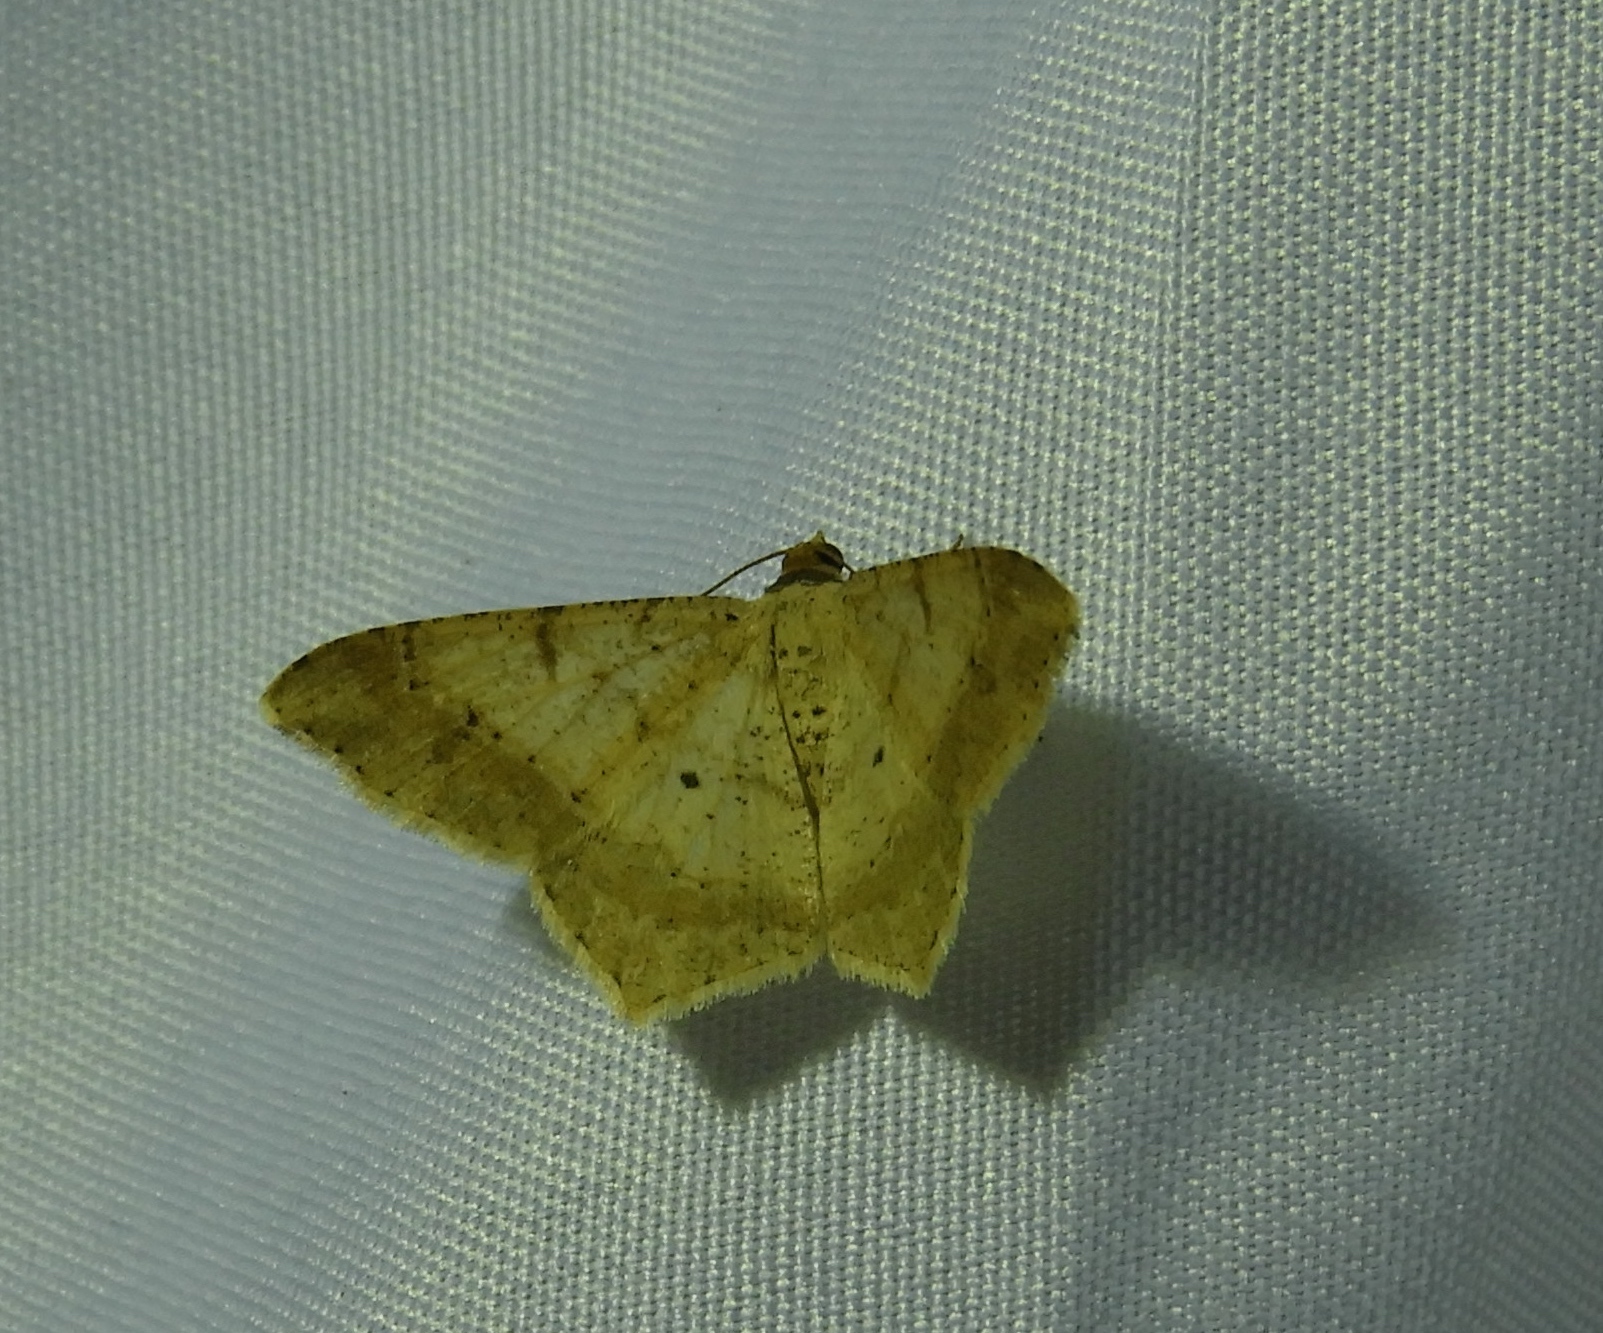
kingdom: Animalia
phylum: Arthropoda
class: Insecta
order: Lepidoptera
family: Geometridae
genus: Macaria
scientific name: Macaria
